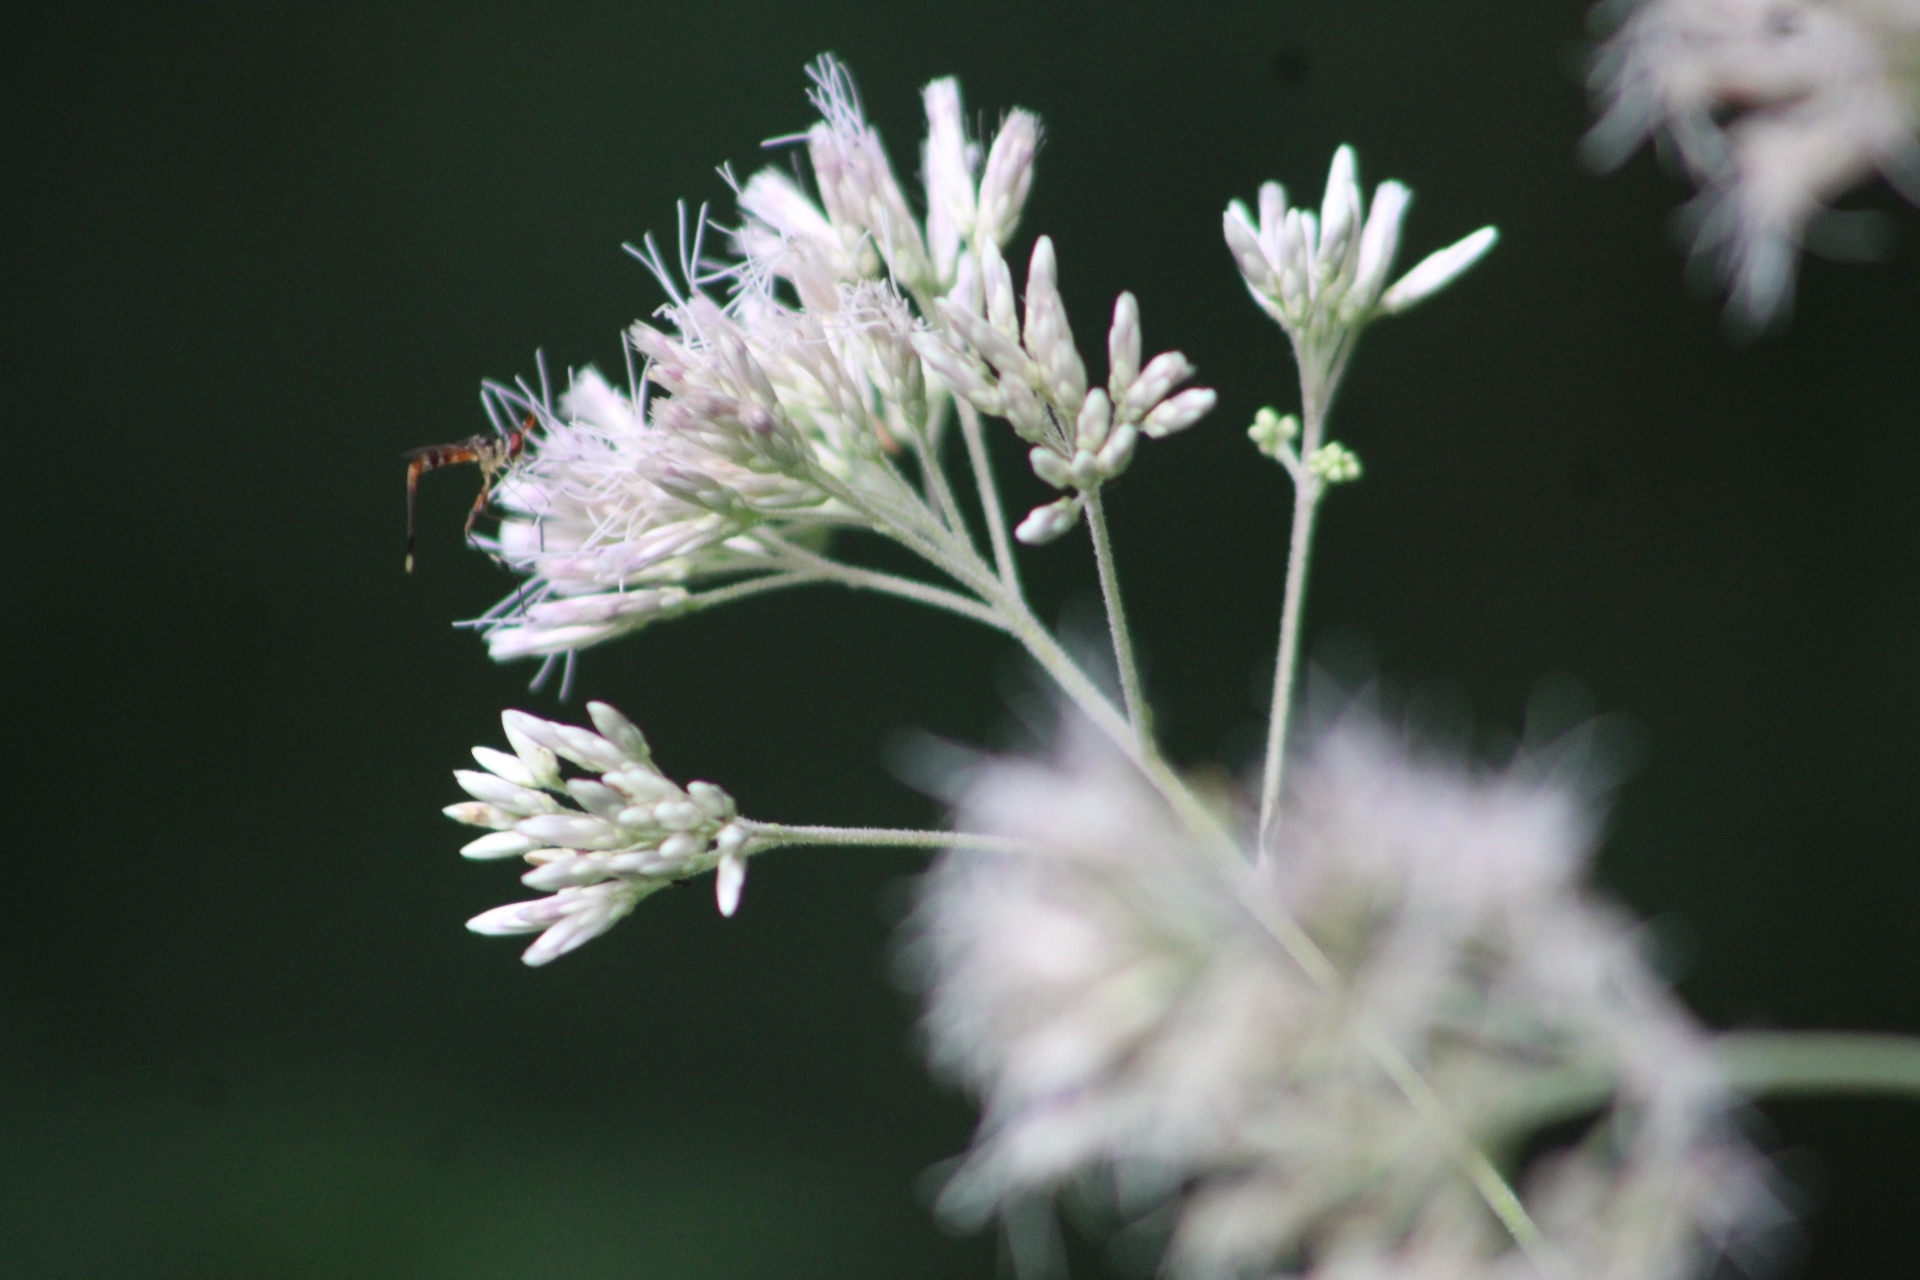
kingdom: Animalia
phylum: Arthropoda
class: Insecta
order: Diptera
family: Conopidae
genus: Stylogaster
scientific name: Stylogaster neglecta
